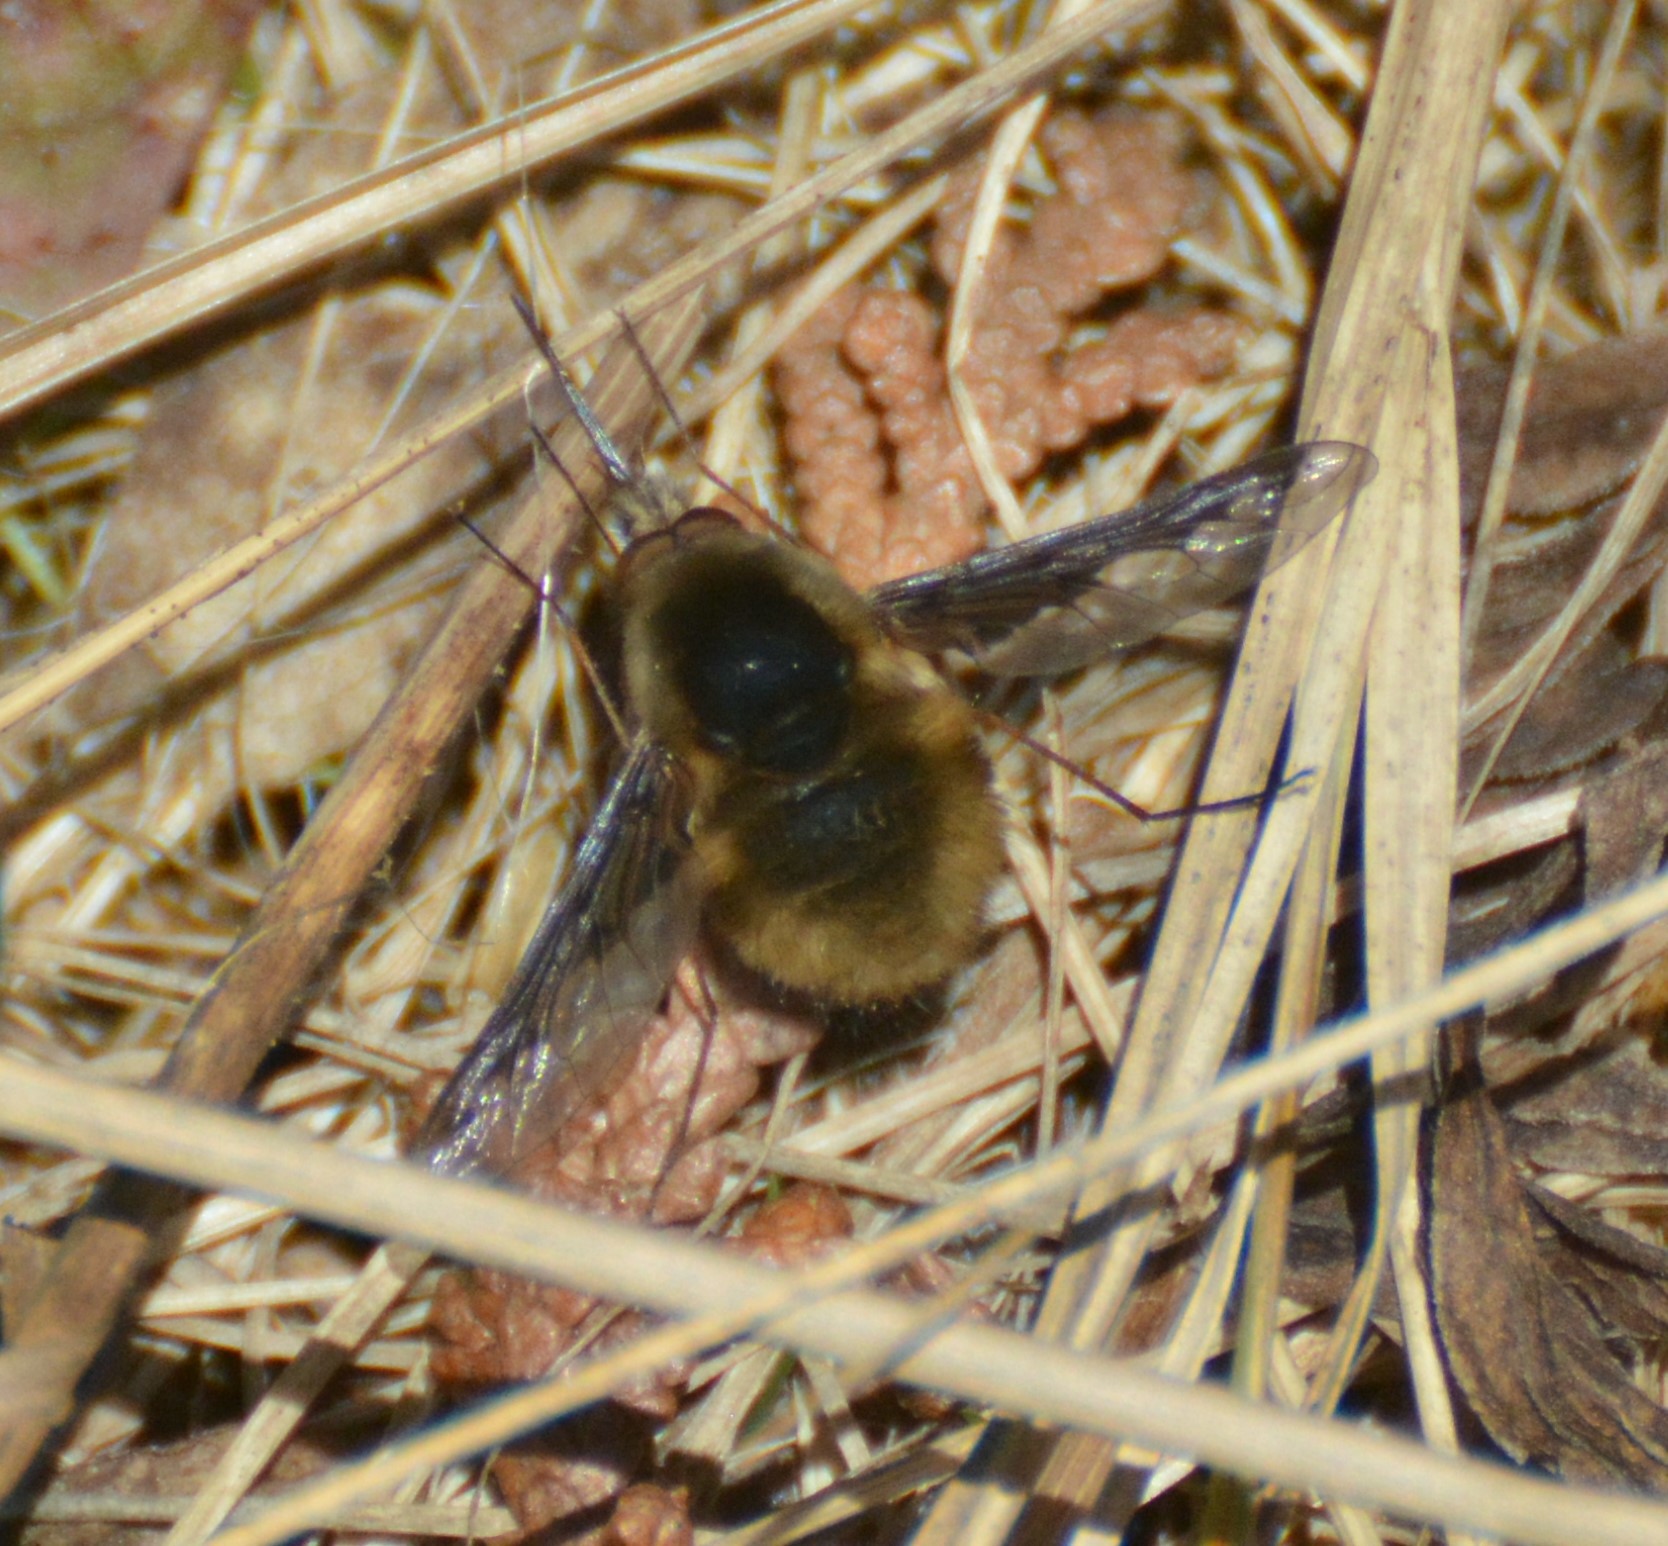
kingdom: Animalia
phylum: Arthropoda
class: Insecta
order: Diptera
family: Bombyliidae
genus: Bombylius
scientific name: Bombylius major
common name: Bee fly
